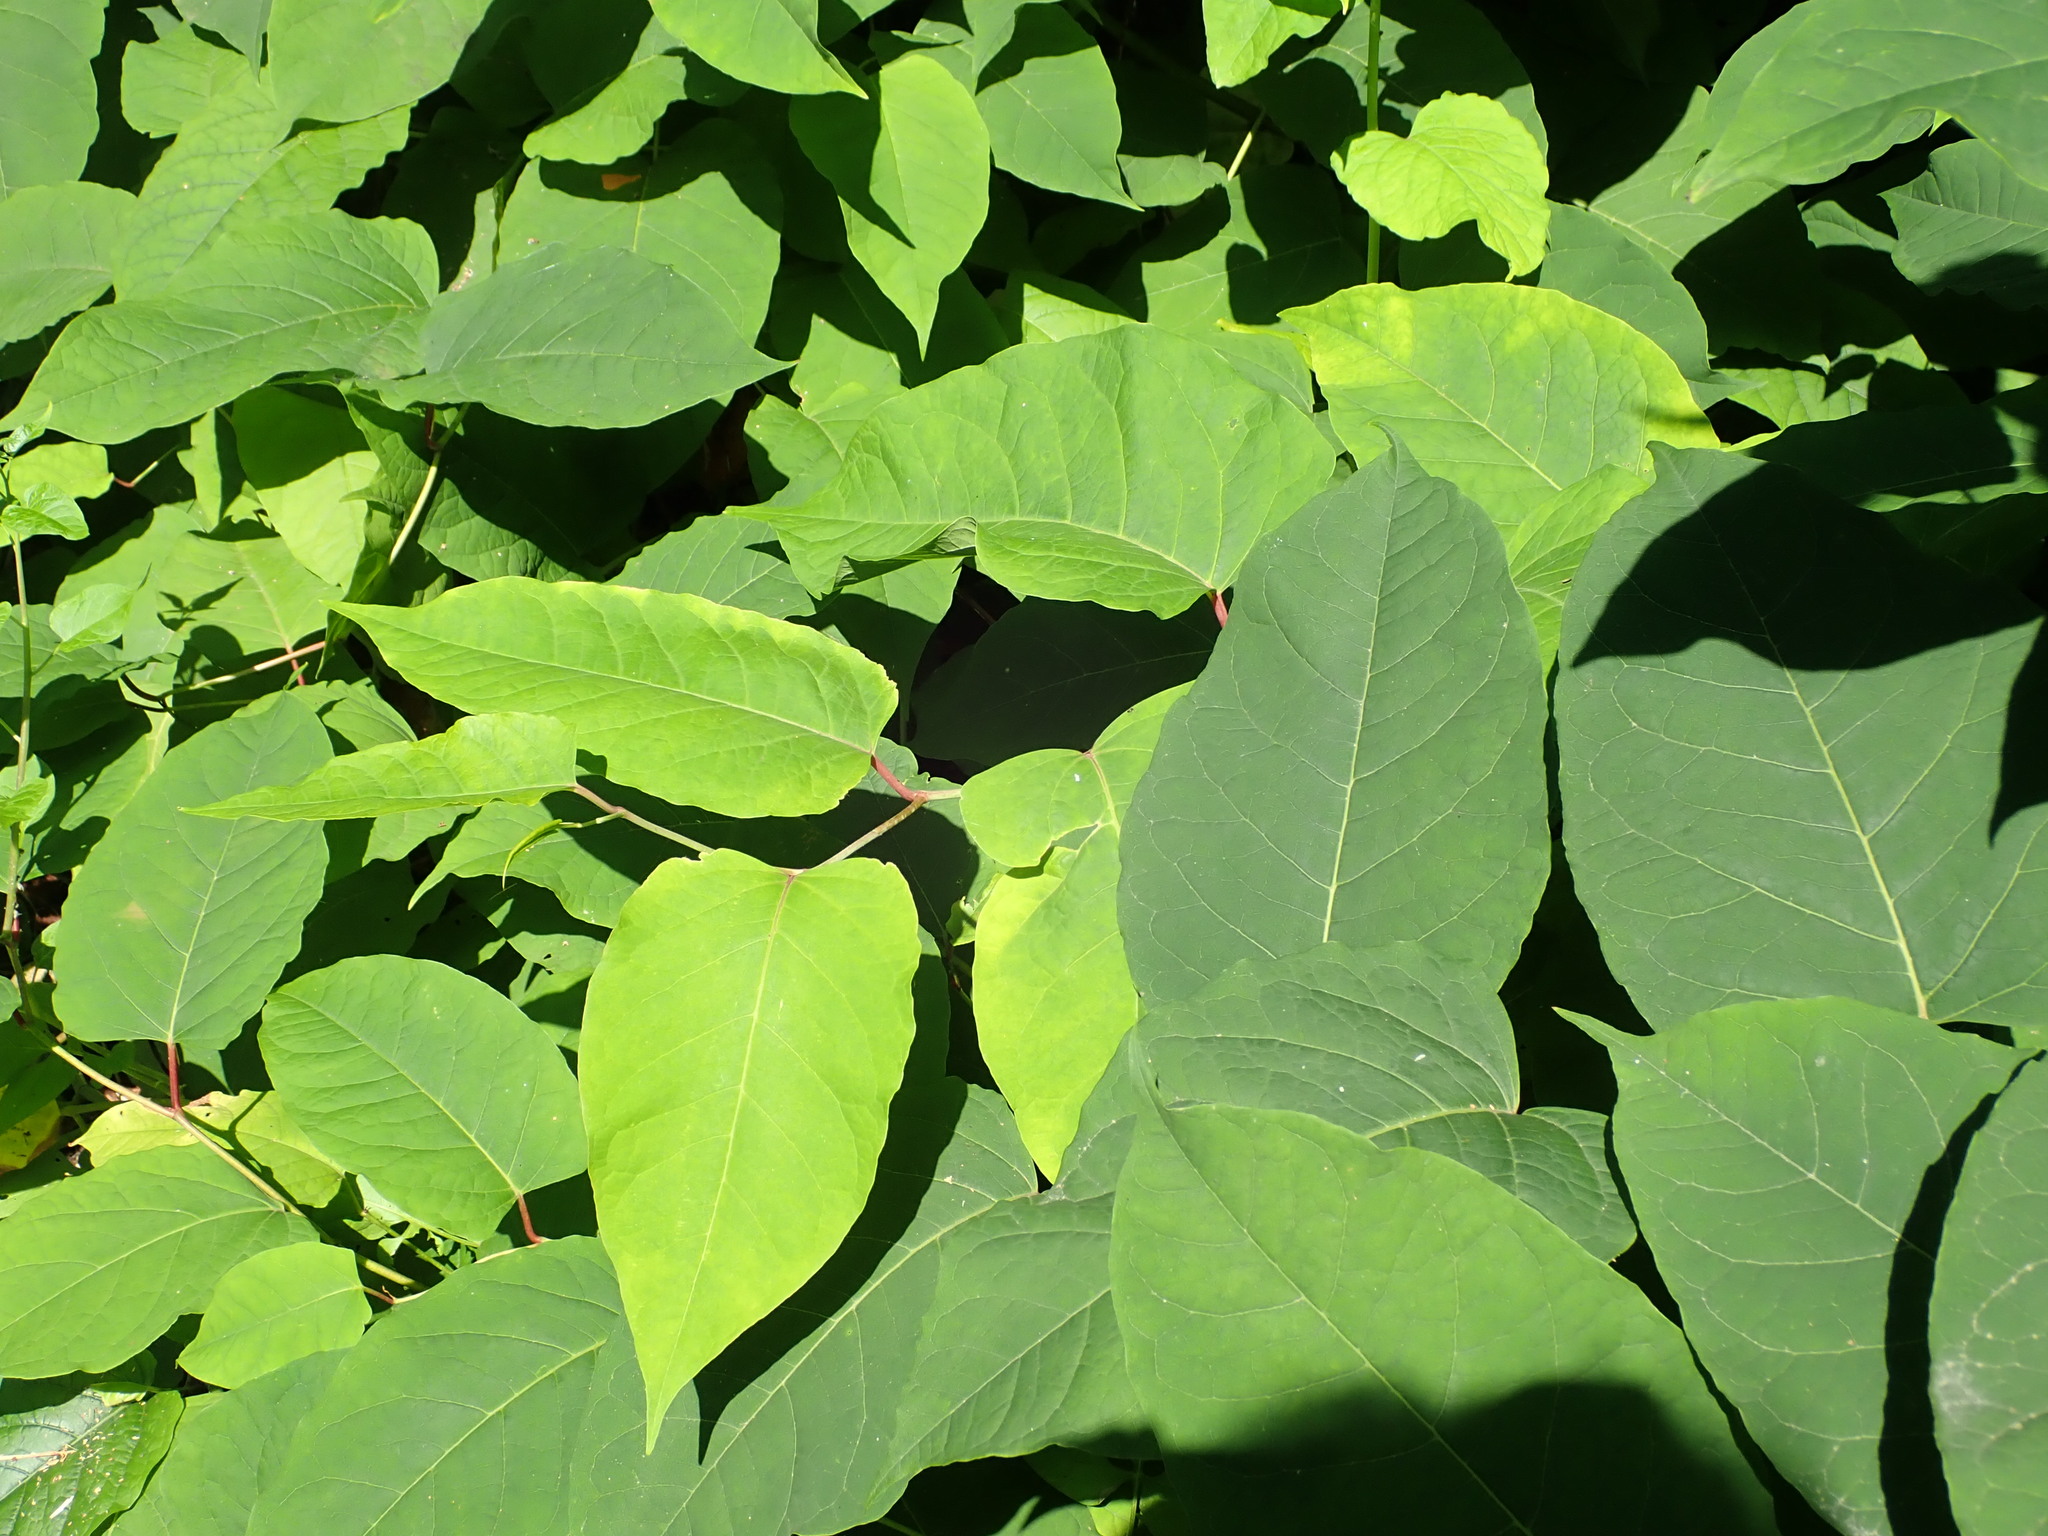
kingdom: Plantae
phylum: Tracheophyta
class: Magnoliopsida
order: Caryophyllales
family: Polygonaceae
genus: Reynoutria
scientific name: Reynoutria japonica
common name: Japanese knotweed
